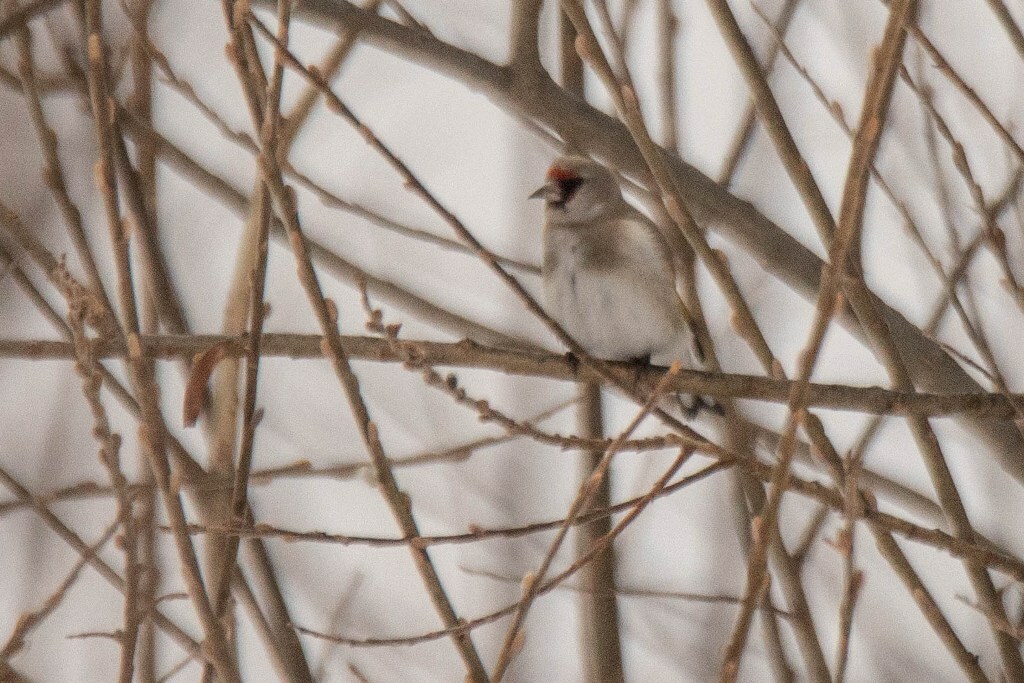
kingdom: Animalia
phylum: Chordata
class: Aves
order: Passeriformes
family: Fringillidae
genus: Carduelis
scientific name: Carduelis carduelis
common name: European goldfinch
